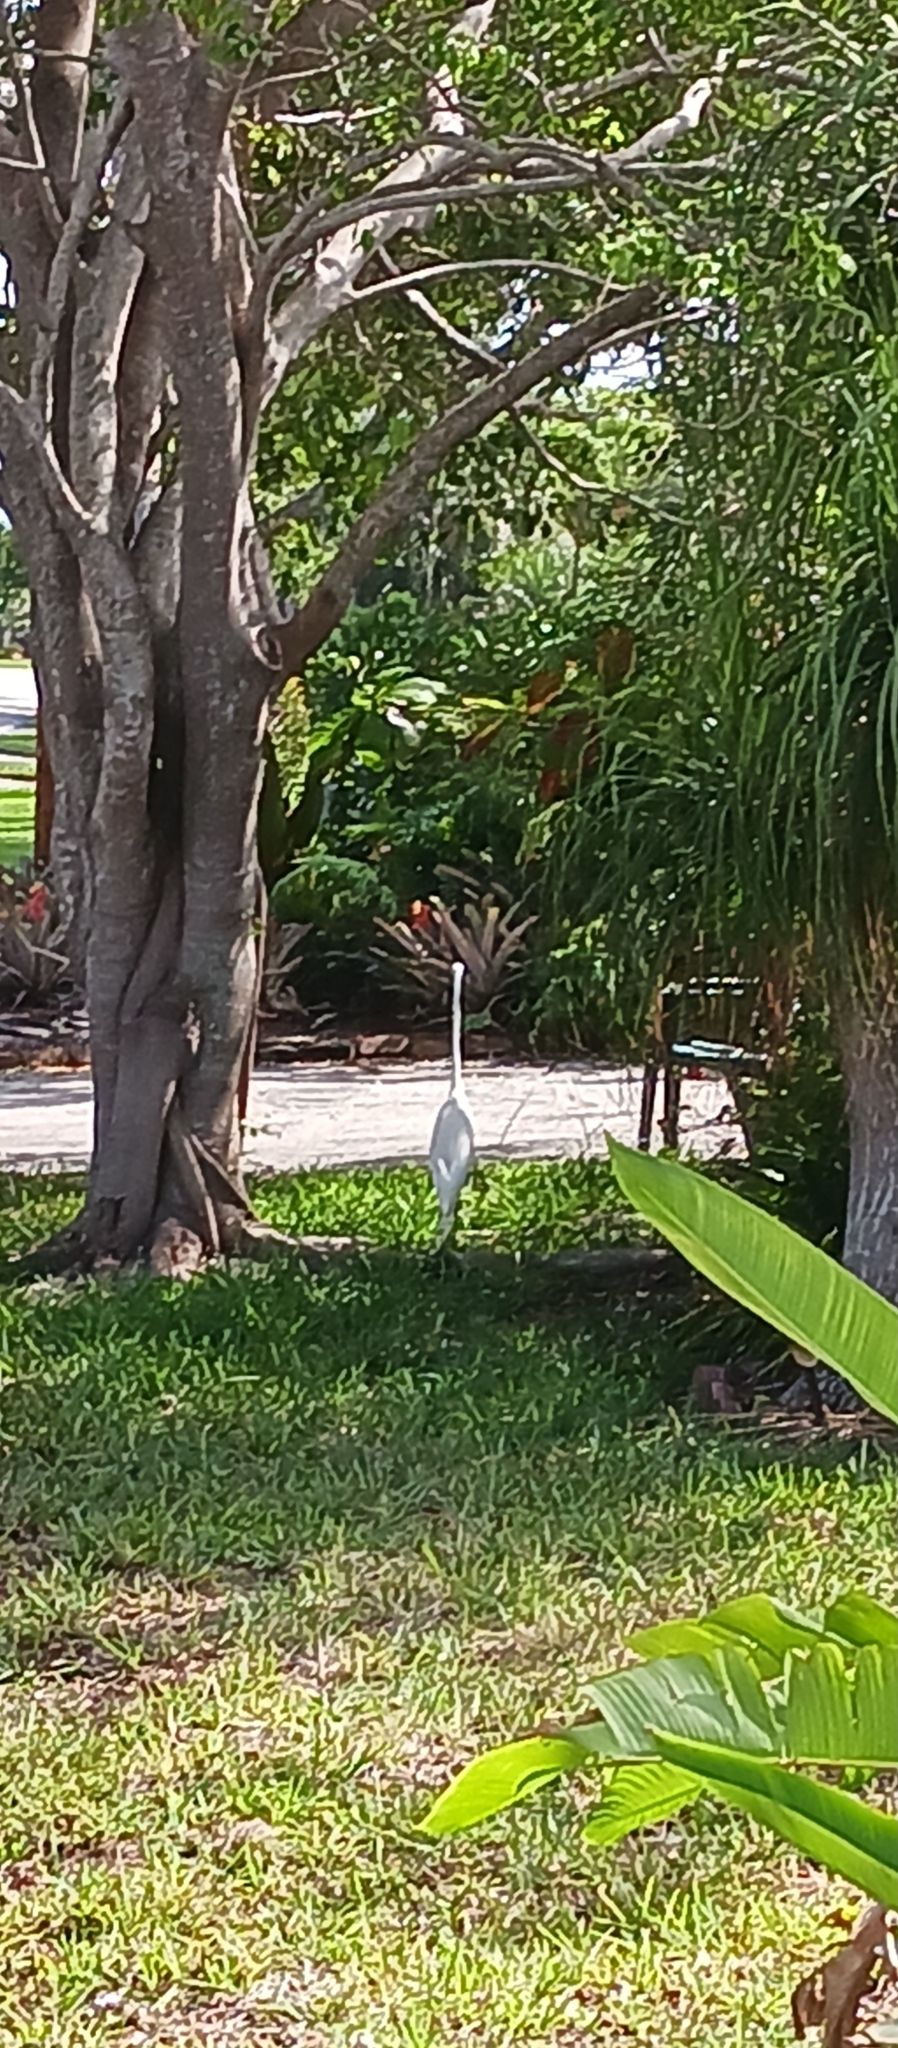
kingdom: Animalia
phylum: Chordata
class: Aves
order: Pelecaniformes
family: Ardeidae
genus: Ardea
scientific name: Ardea alba
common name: Great egret
